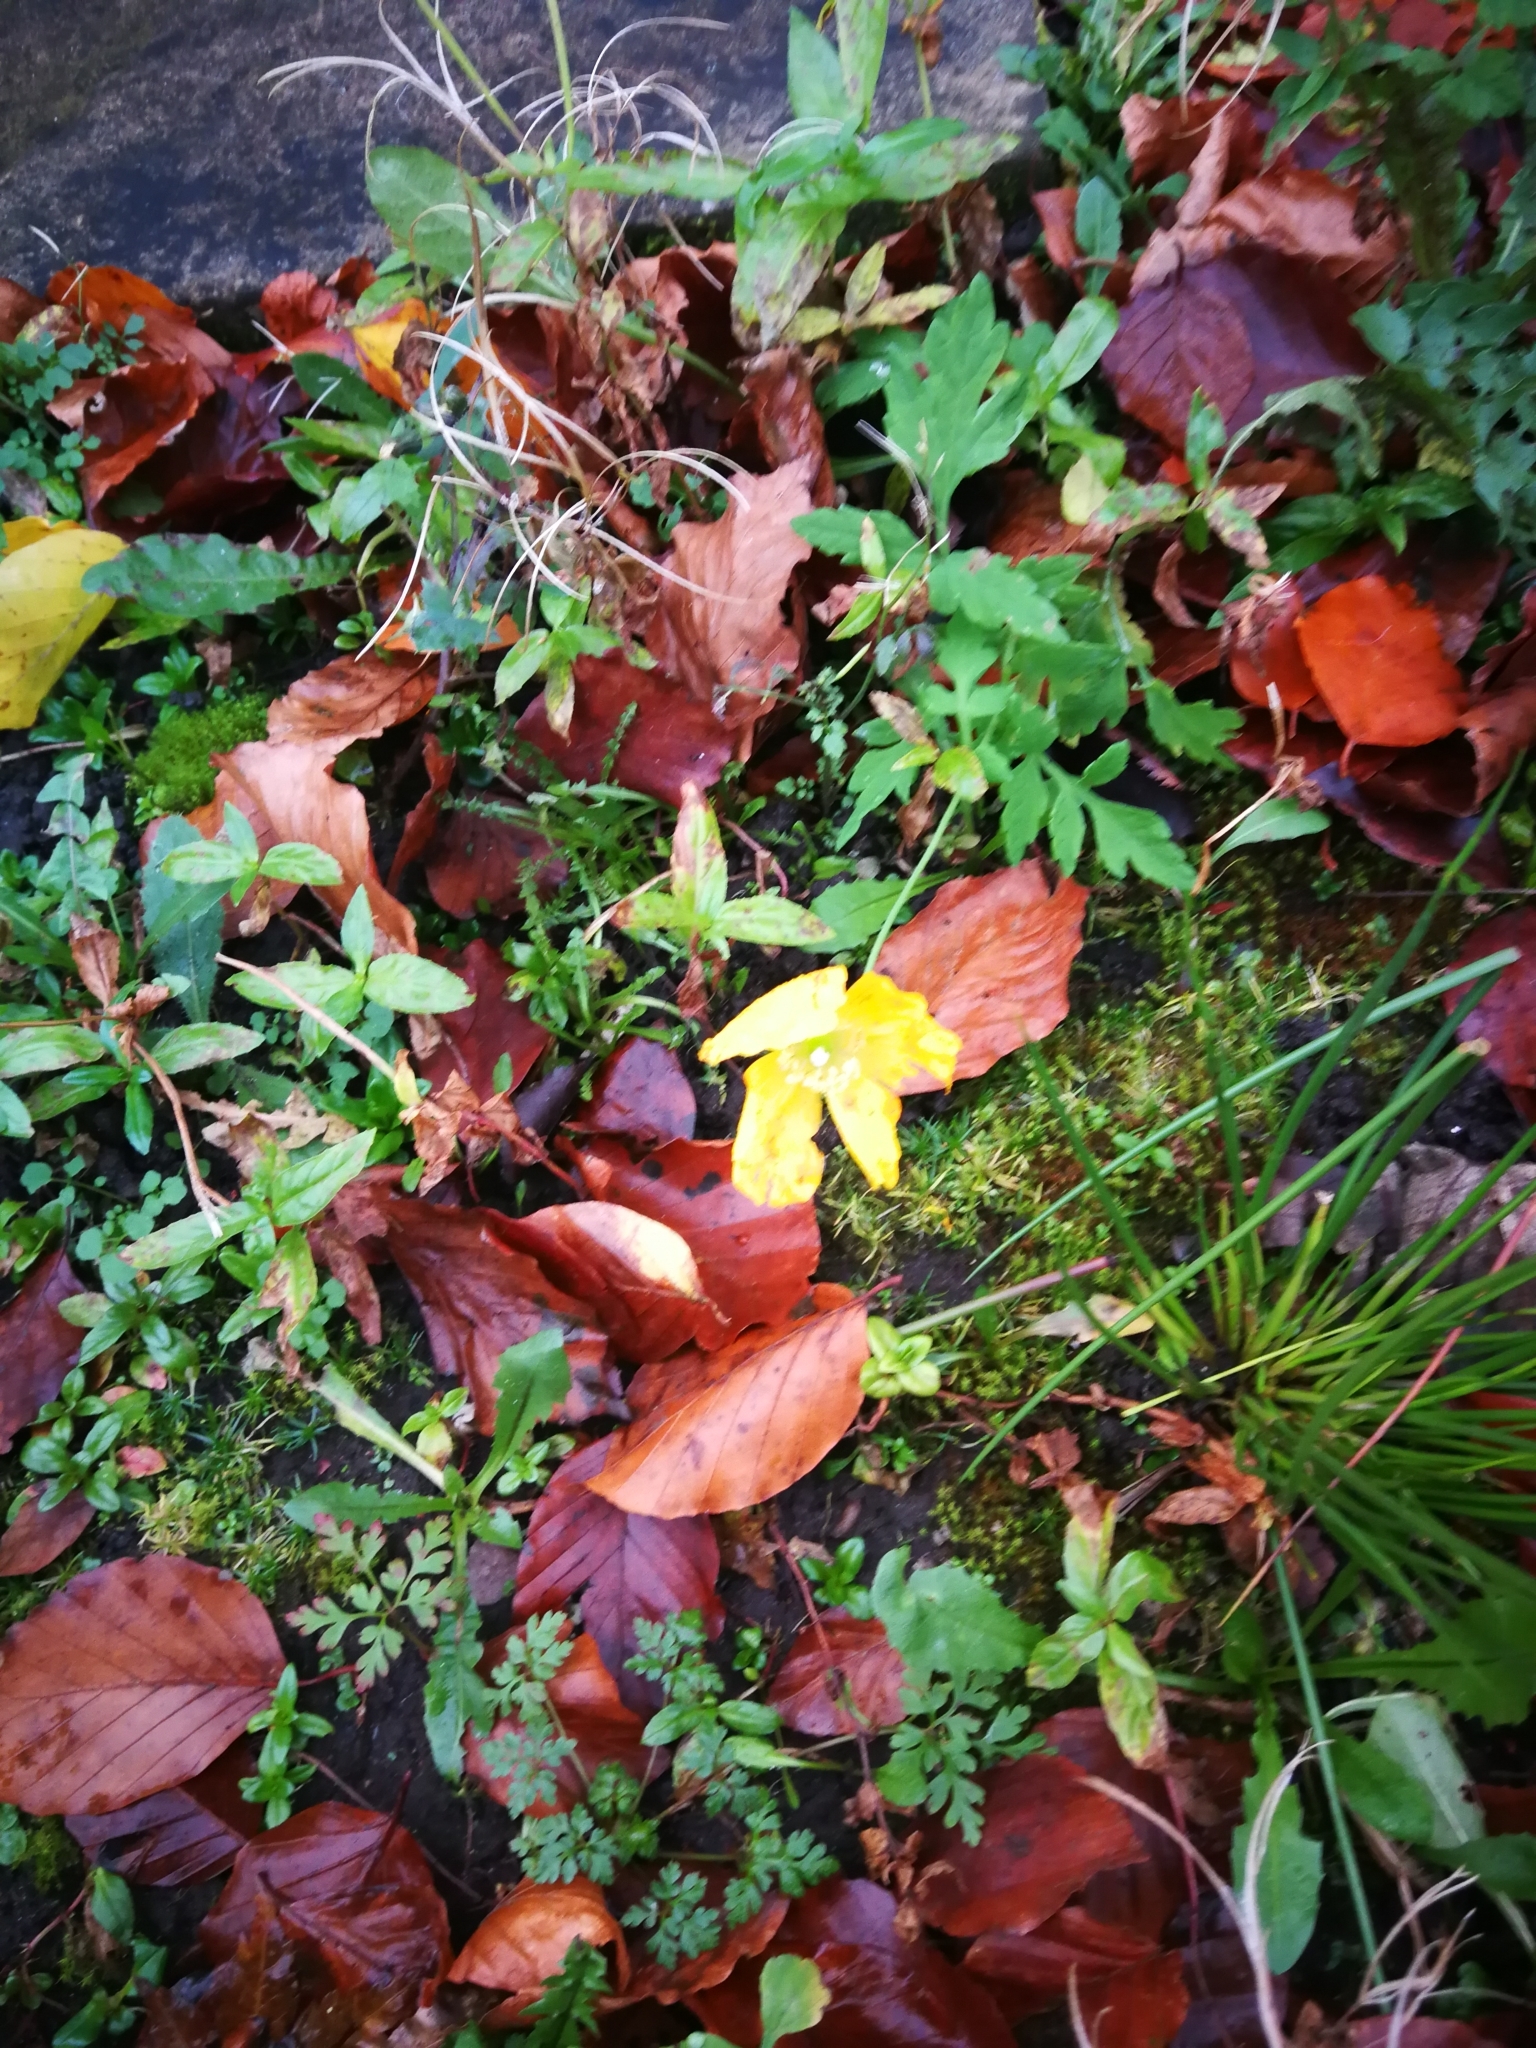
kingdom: Plantae
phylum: Tracheophyta
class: Magnoliopsida
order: Ranunculales
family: Papaveraceae
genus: Papaver
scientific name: Papaver cambricum
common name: Poppy
